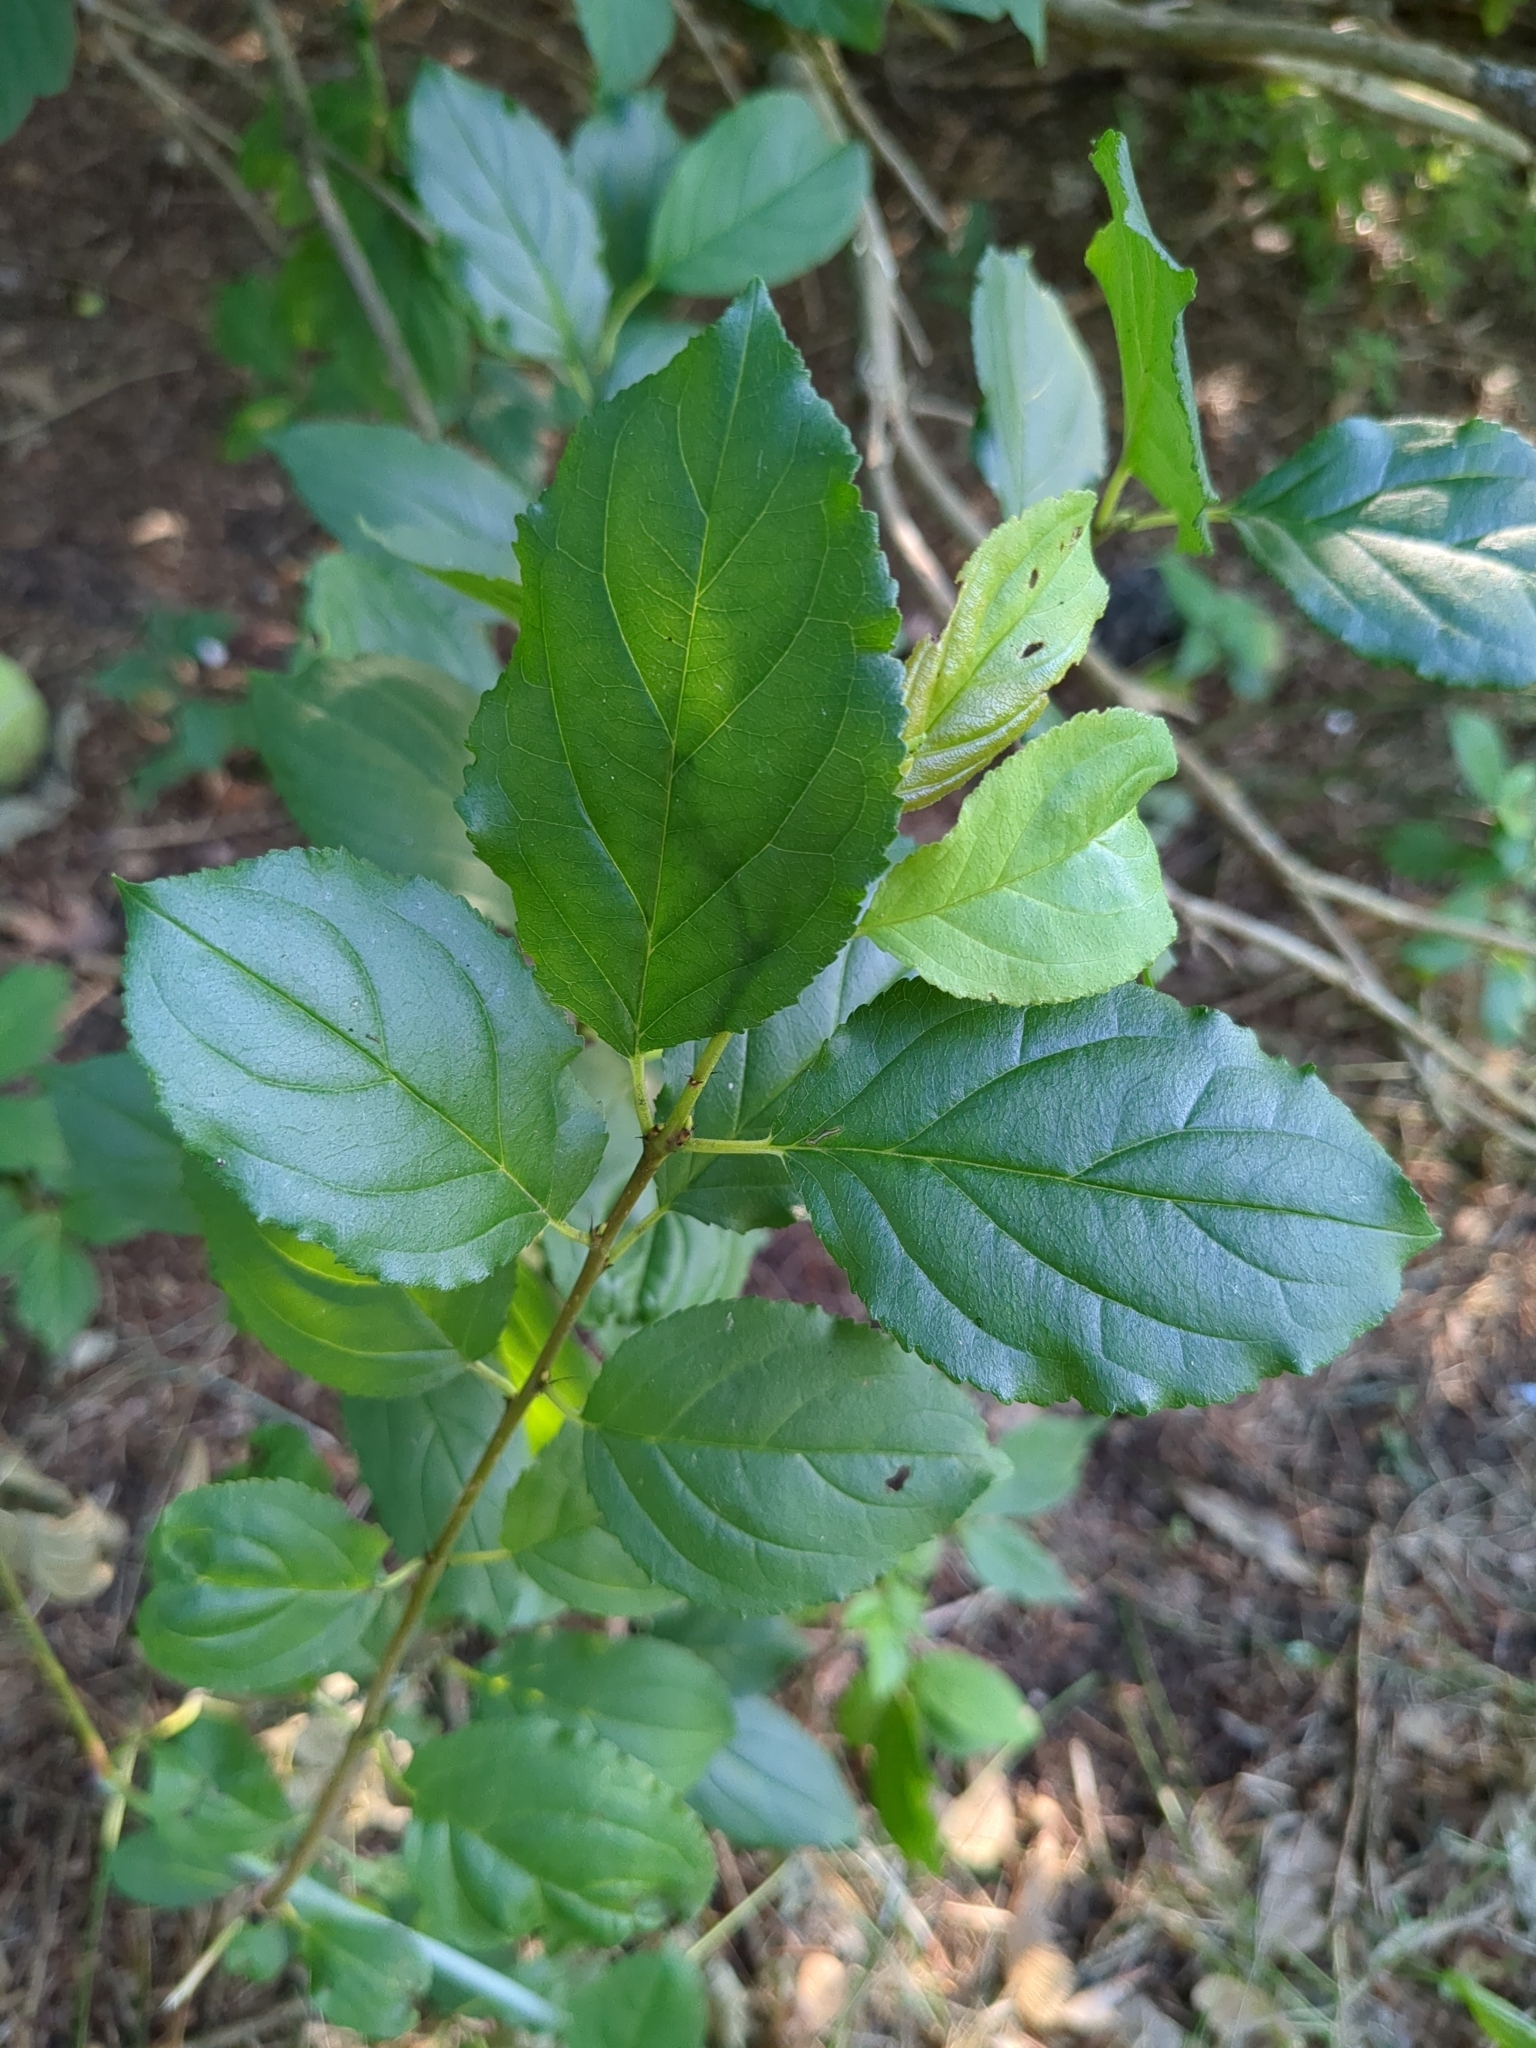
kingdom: Plantae
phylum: Tracheophyta
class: Magnoliopsida
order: Rosales
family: Rhamnaceae
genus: Rhamnus
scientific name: Rhamnus cathartica
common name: Common buckthorn
